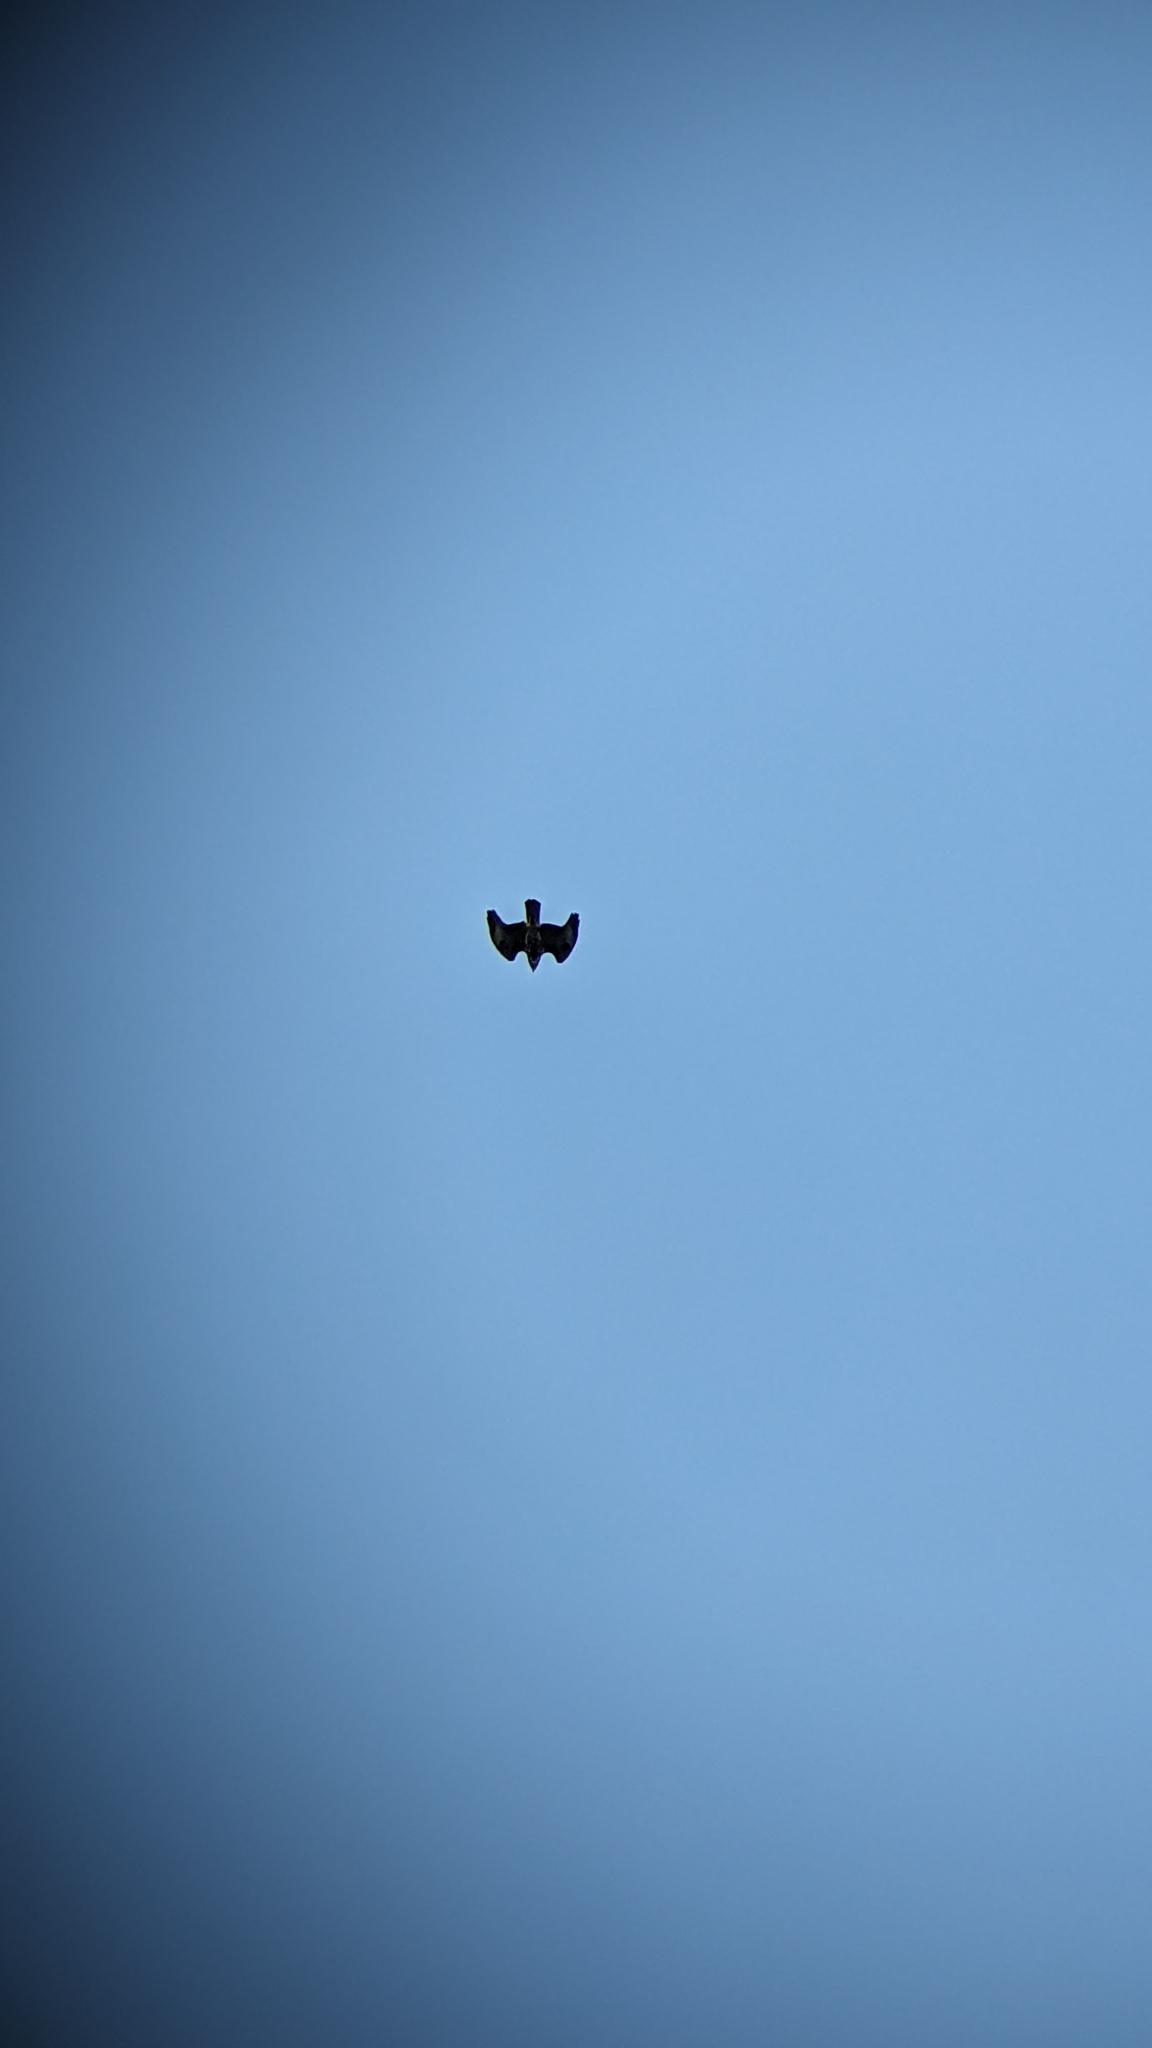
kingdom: Animalia
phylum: Chordata
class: Aves
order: Accipitriformes
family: Accipitridae
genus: Buteo
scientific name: Buteo buteo
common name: Common buzzard
